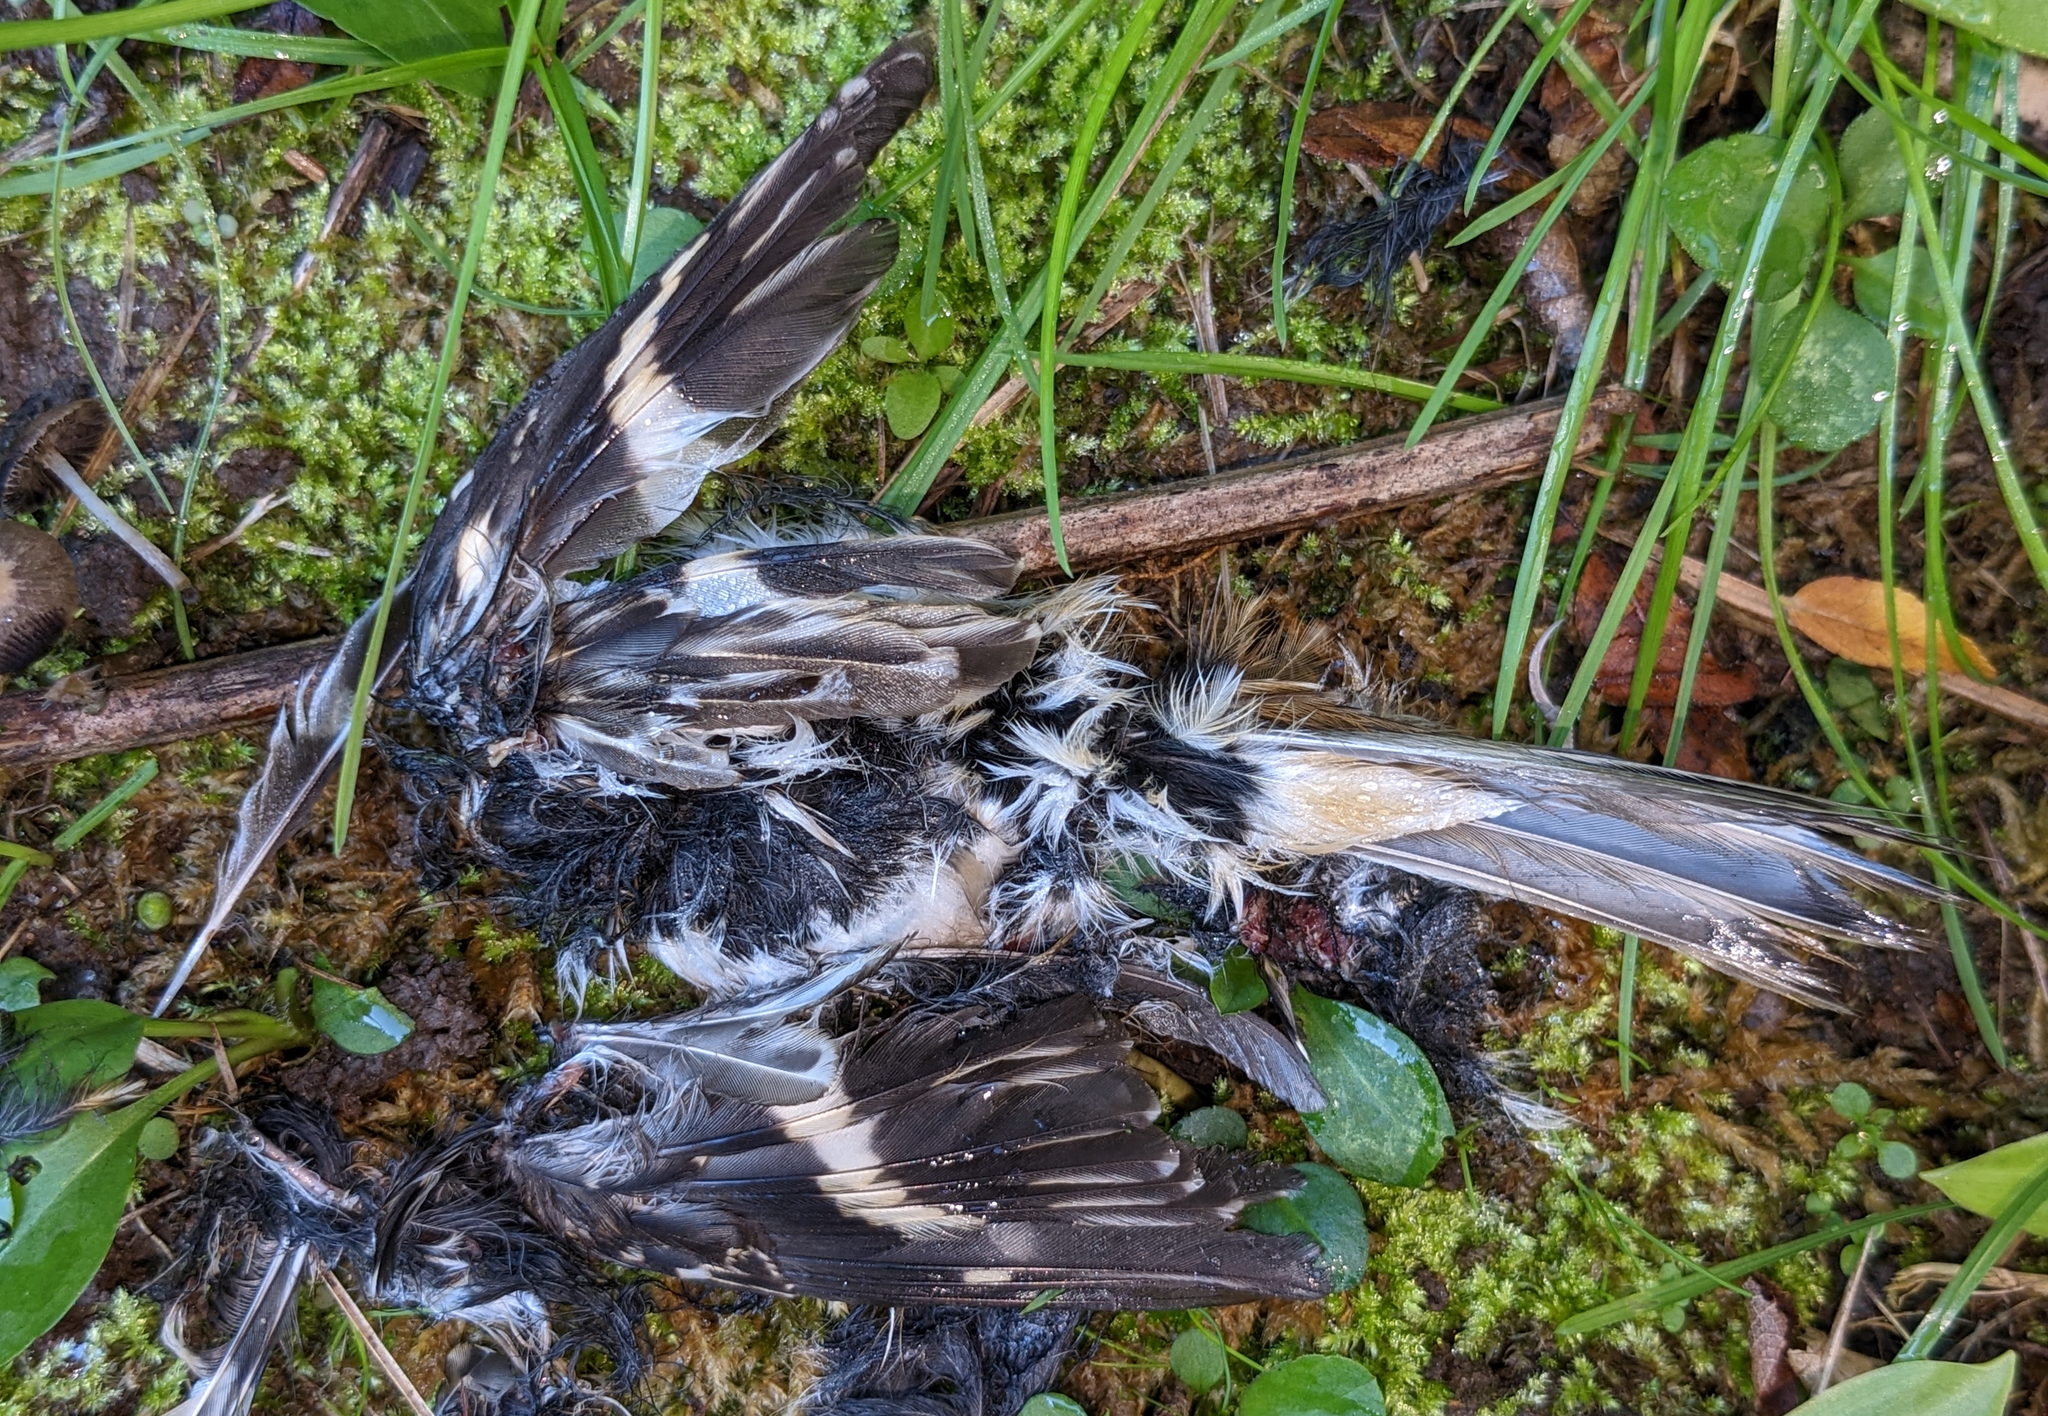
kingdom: Animalia
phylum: Chordata
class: Aves
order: Passeriformes
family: Certhiidae
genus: Certhia
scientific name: Certhia americana
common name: Brown creeper
